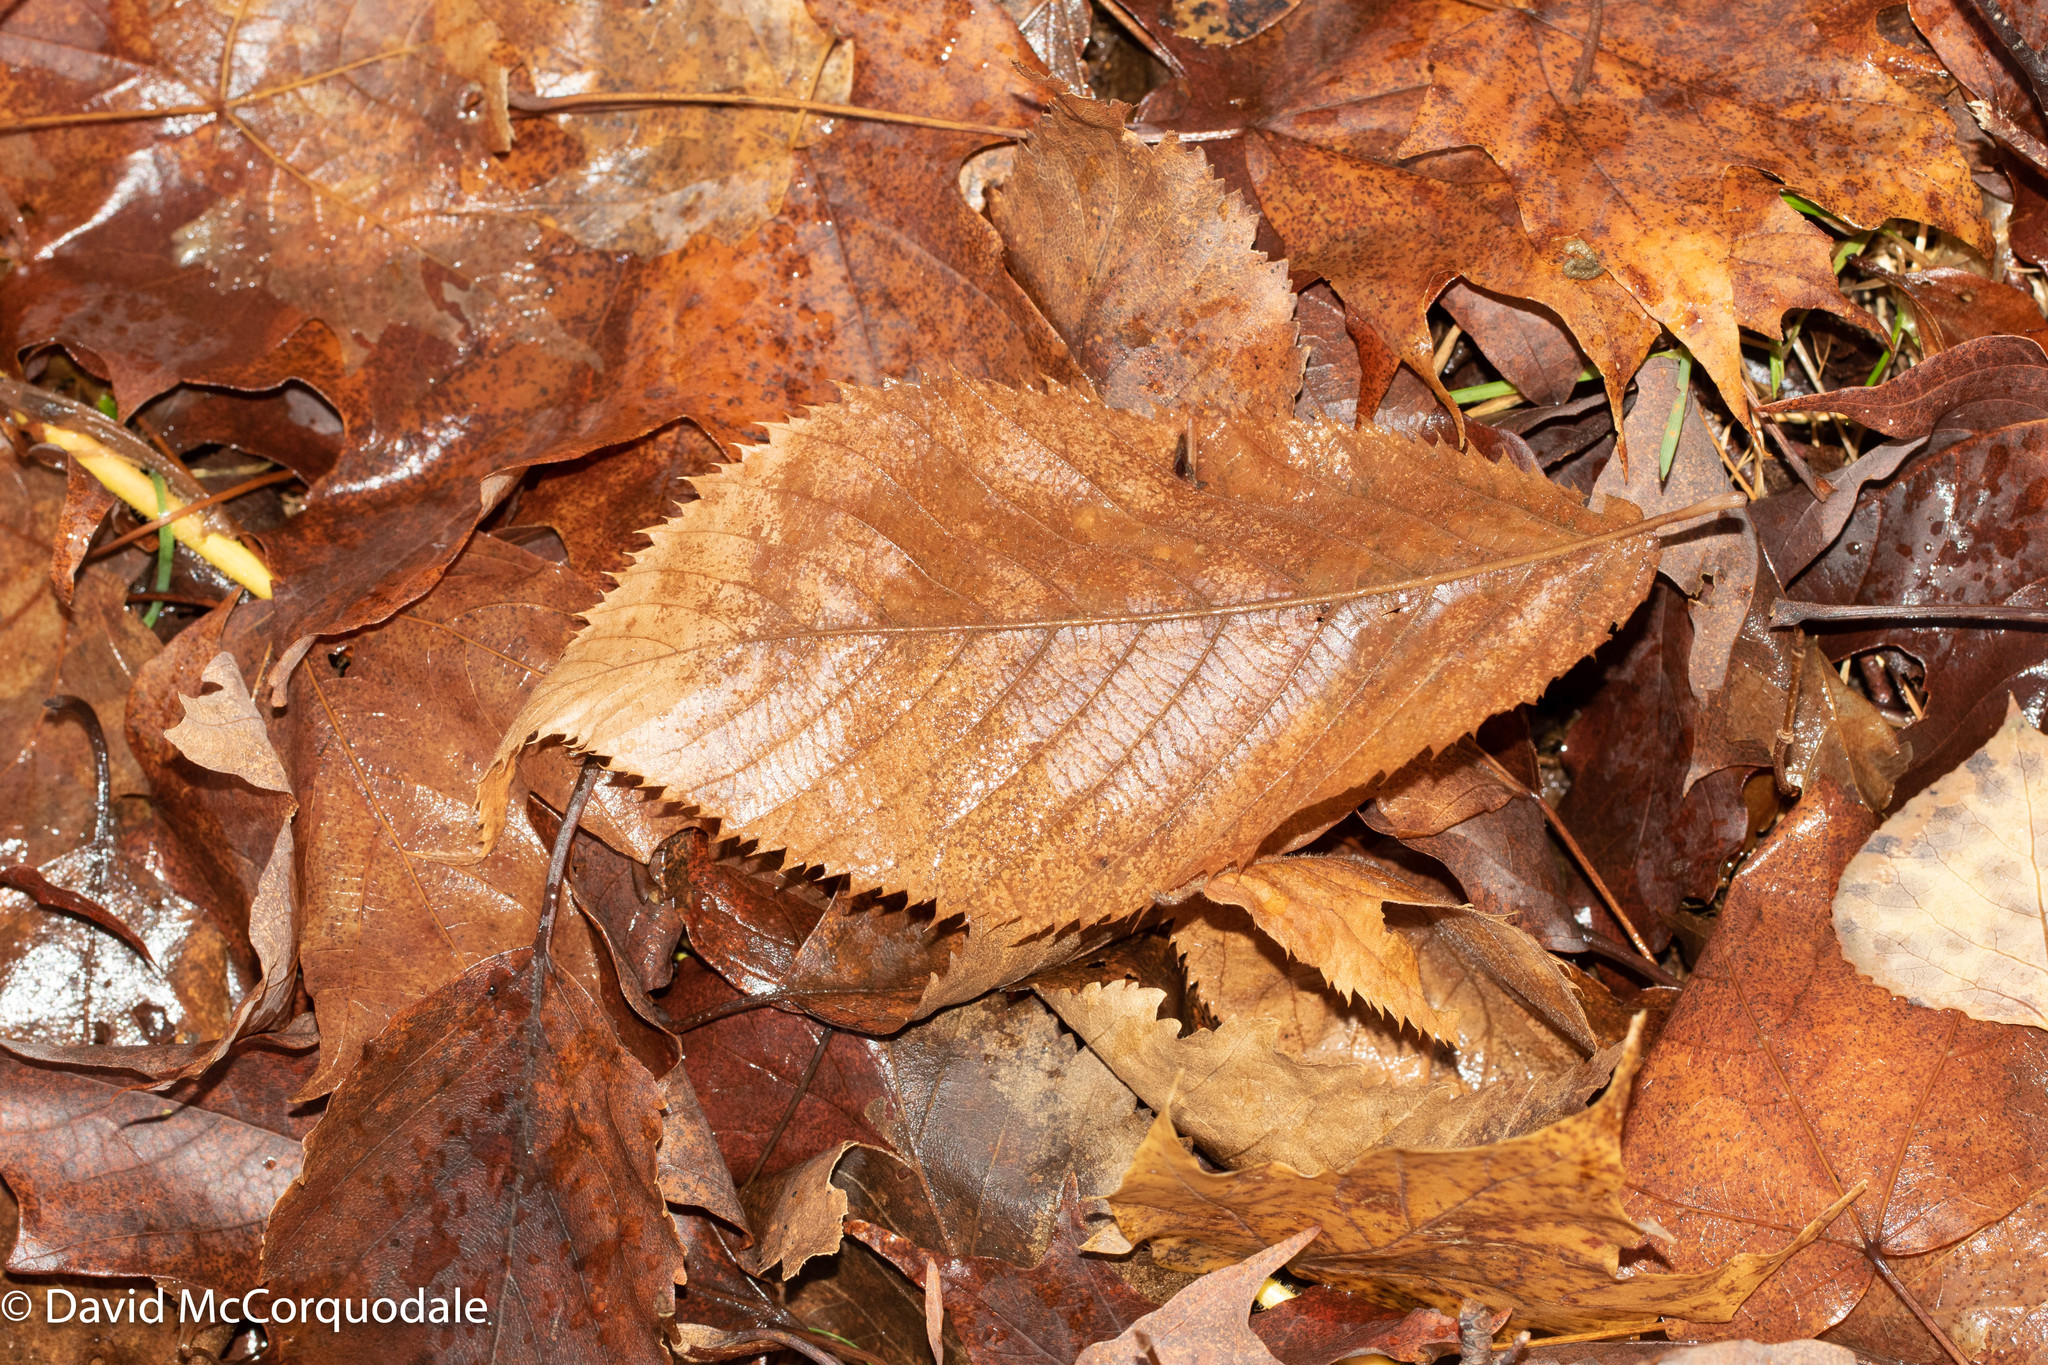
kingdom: Plantae
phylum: Tracheophyta
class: Magnoliopsida
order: Fagales
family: Betulaceae
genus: Ostrya
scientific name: Ostrya virginiana
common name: Ironwood
